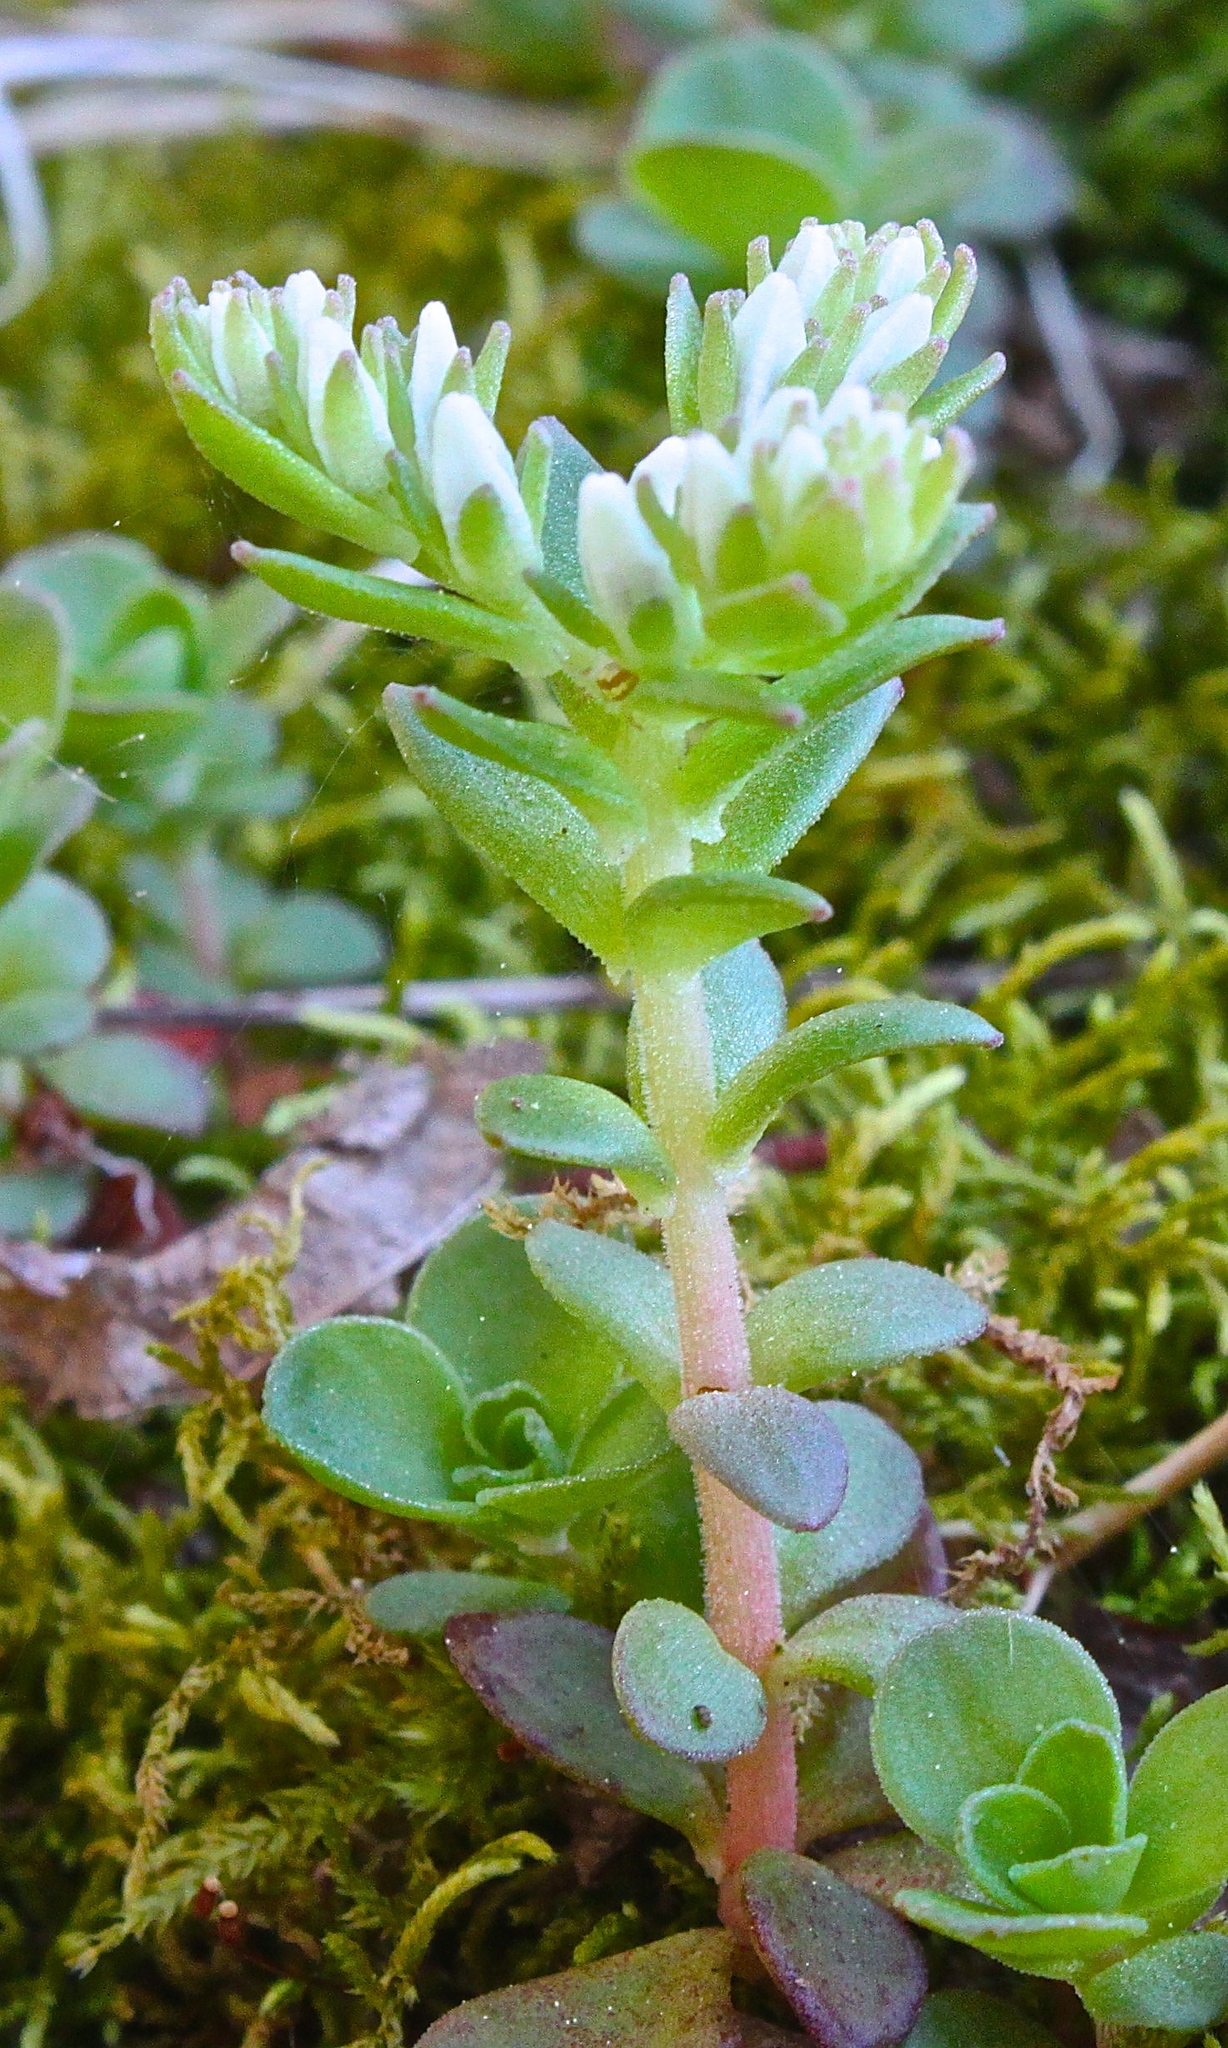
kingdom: Plantae
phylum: Tracheophyta
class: Magnoliopsida
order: Saxifragales
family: Crassulaceae
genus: Sedum
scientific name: Sedum ternatum
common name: Wild stonecrop
